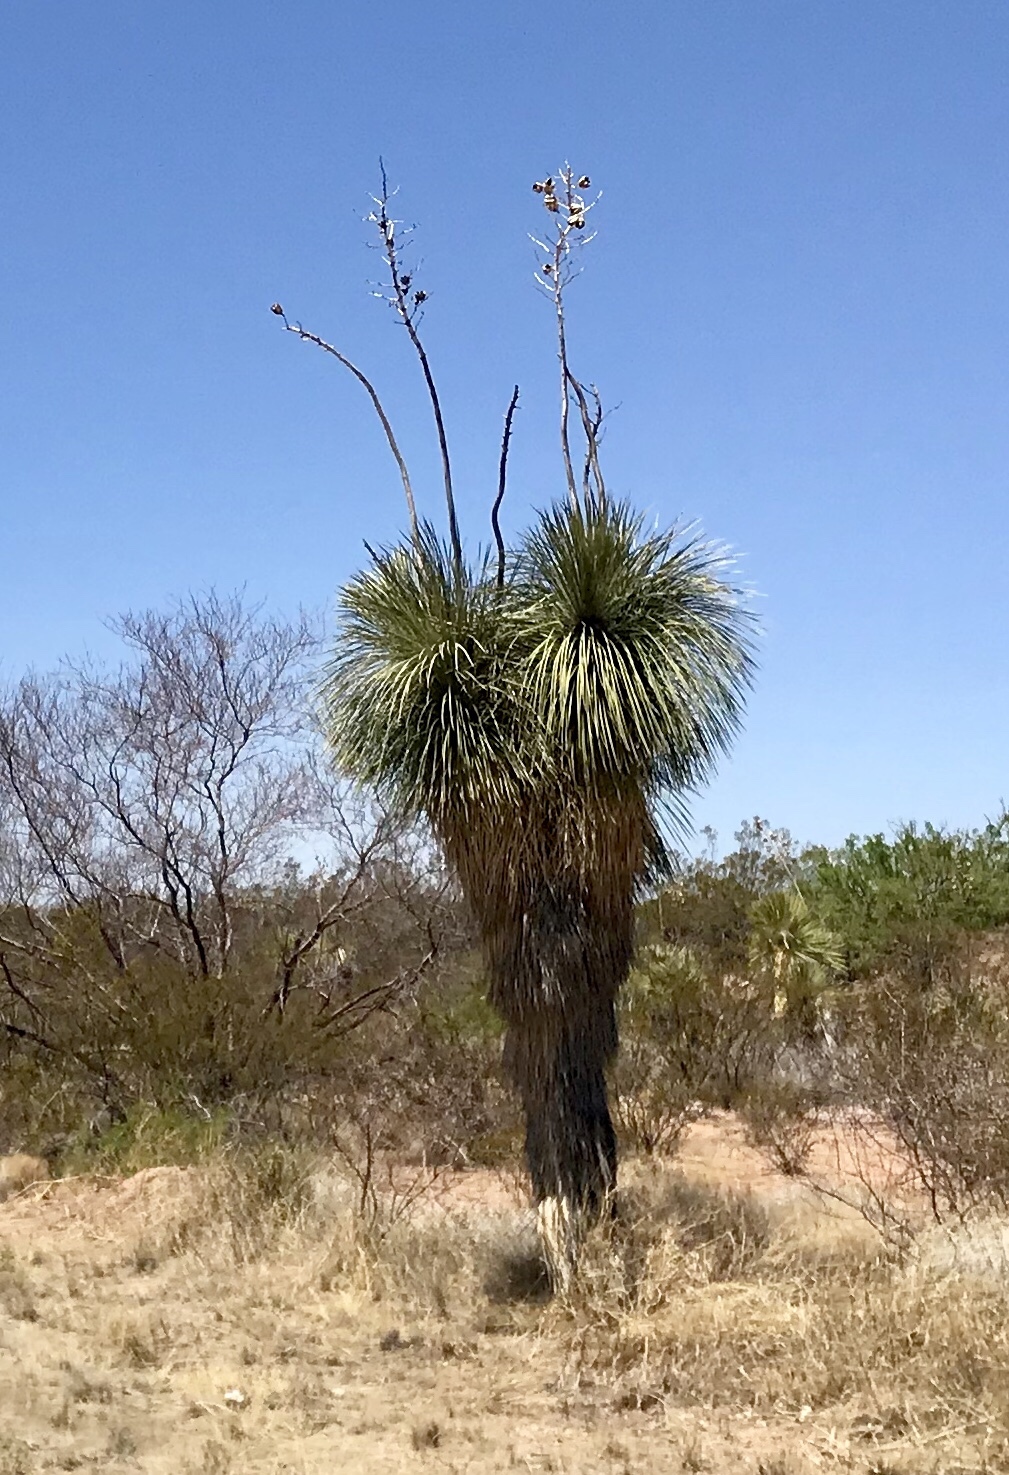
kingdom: Plantae
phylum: Tracheophyta
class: Liliopsida
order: Asparagales
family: Asparagaceae
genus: Yucca
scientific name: Yucca elata
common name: Palmella
